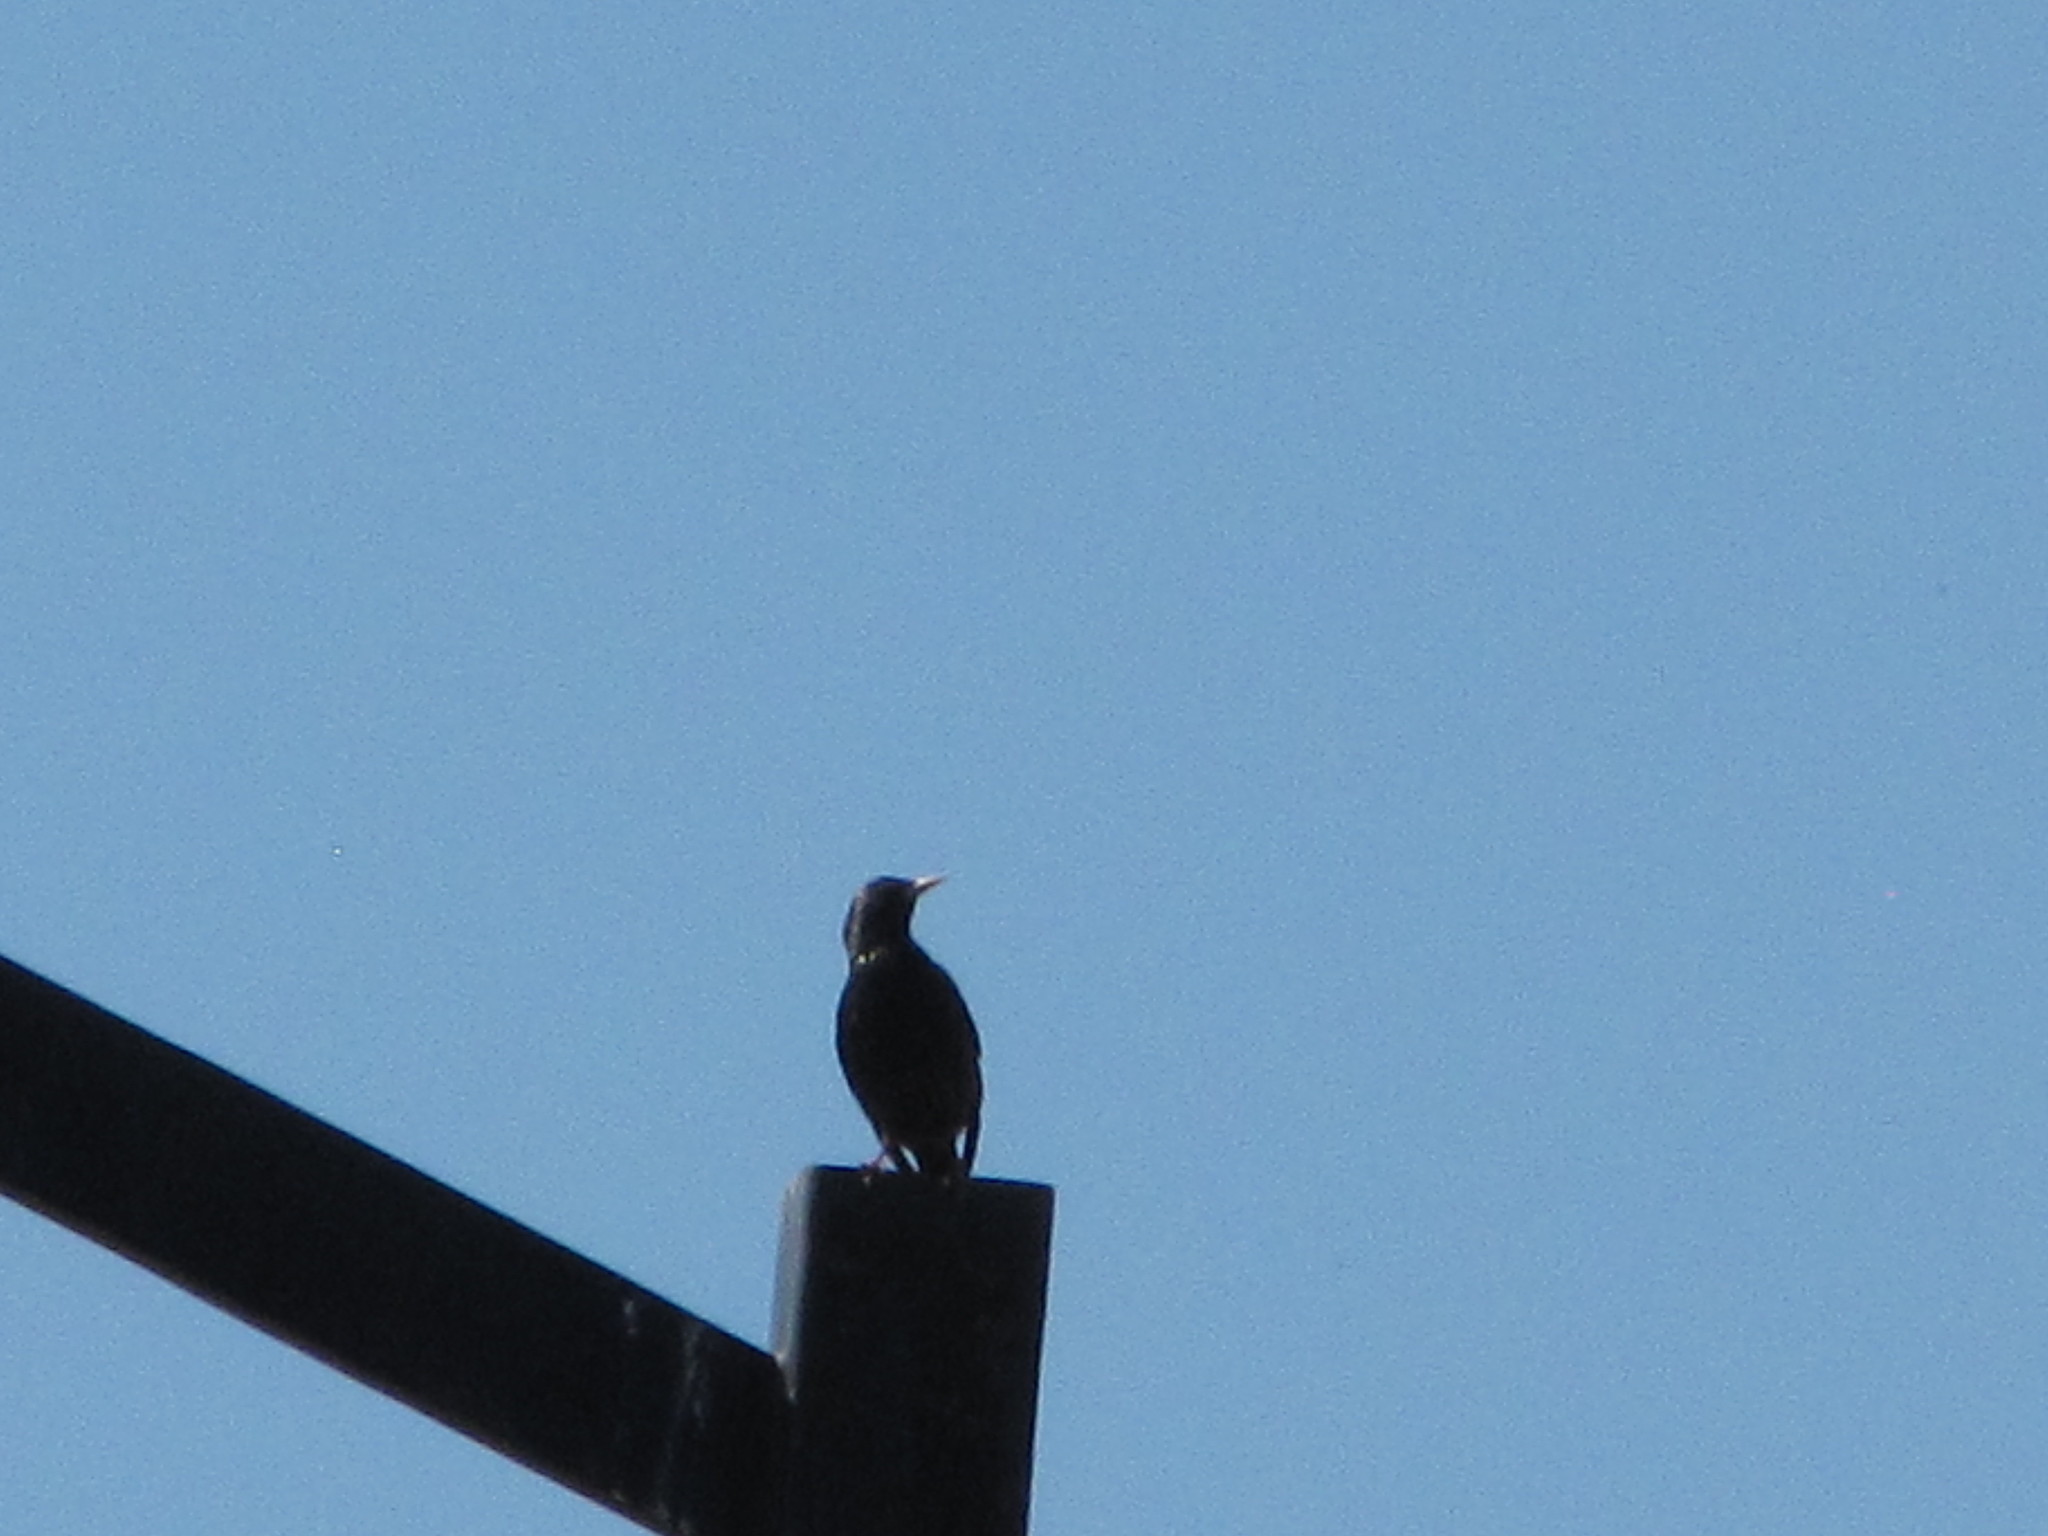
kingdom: Animalia
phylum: Chordata
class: Aves
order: Passeriformes
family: Sturnidae
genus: Sturnus
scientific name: Sturnus vulgaris
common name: Common starling
